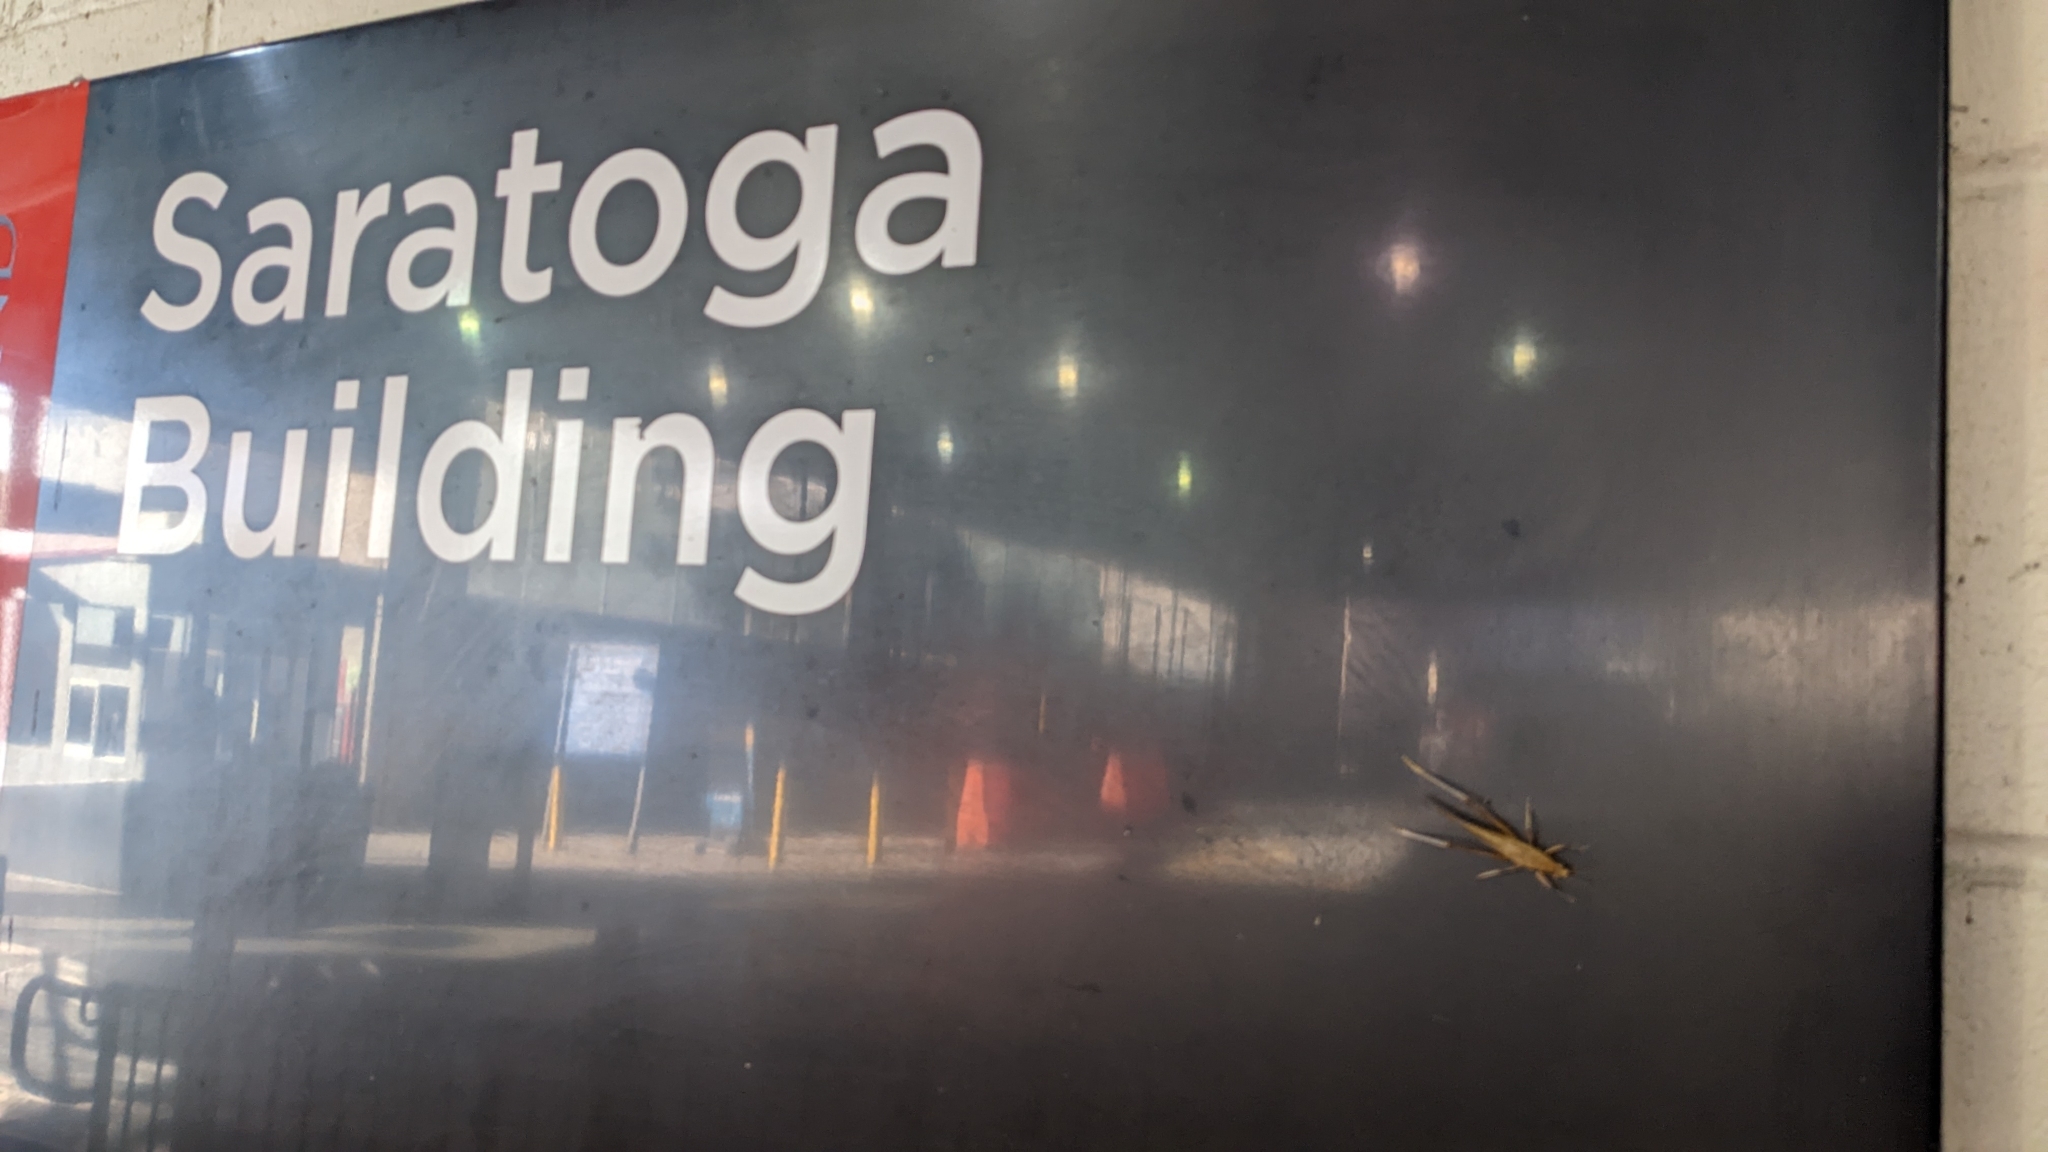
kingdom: Animalia
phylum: Arthropoda
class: Insecta
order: Orthoptera
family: Tettigoniidae
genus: Neoconocephalus
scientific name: Neoconocephalus triops
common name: Broad-tipped conehead
